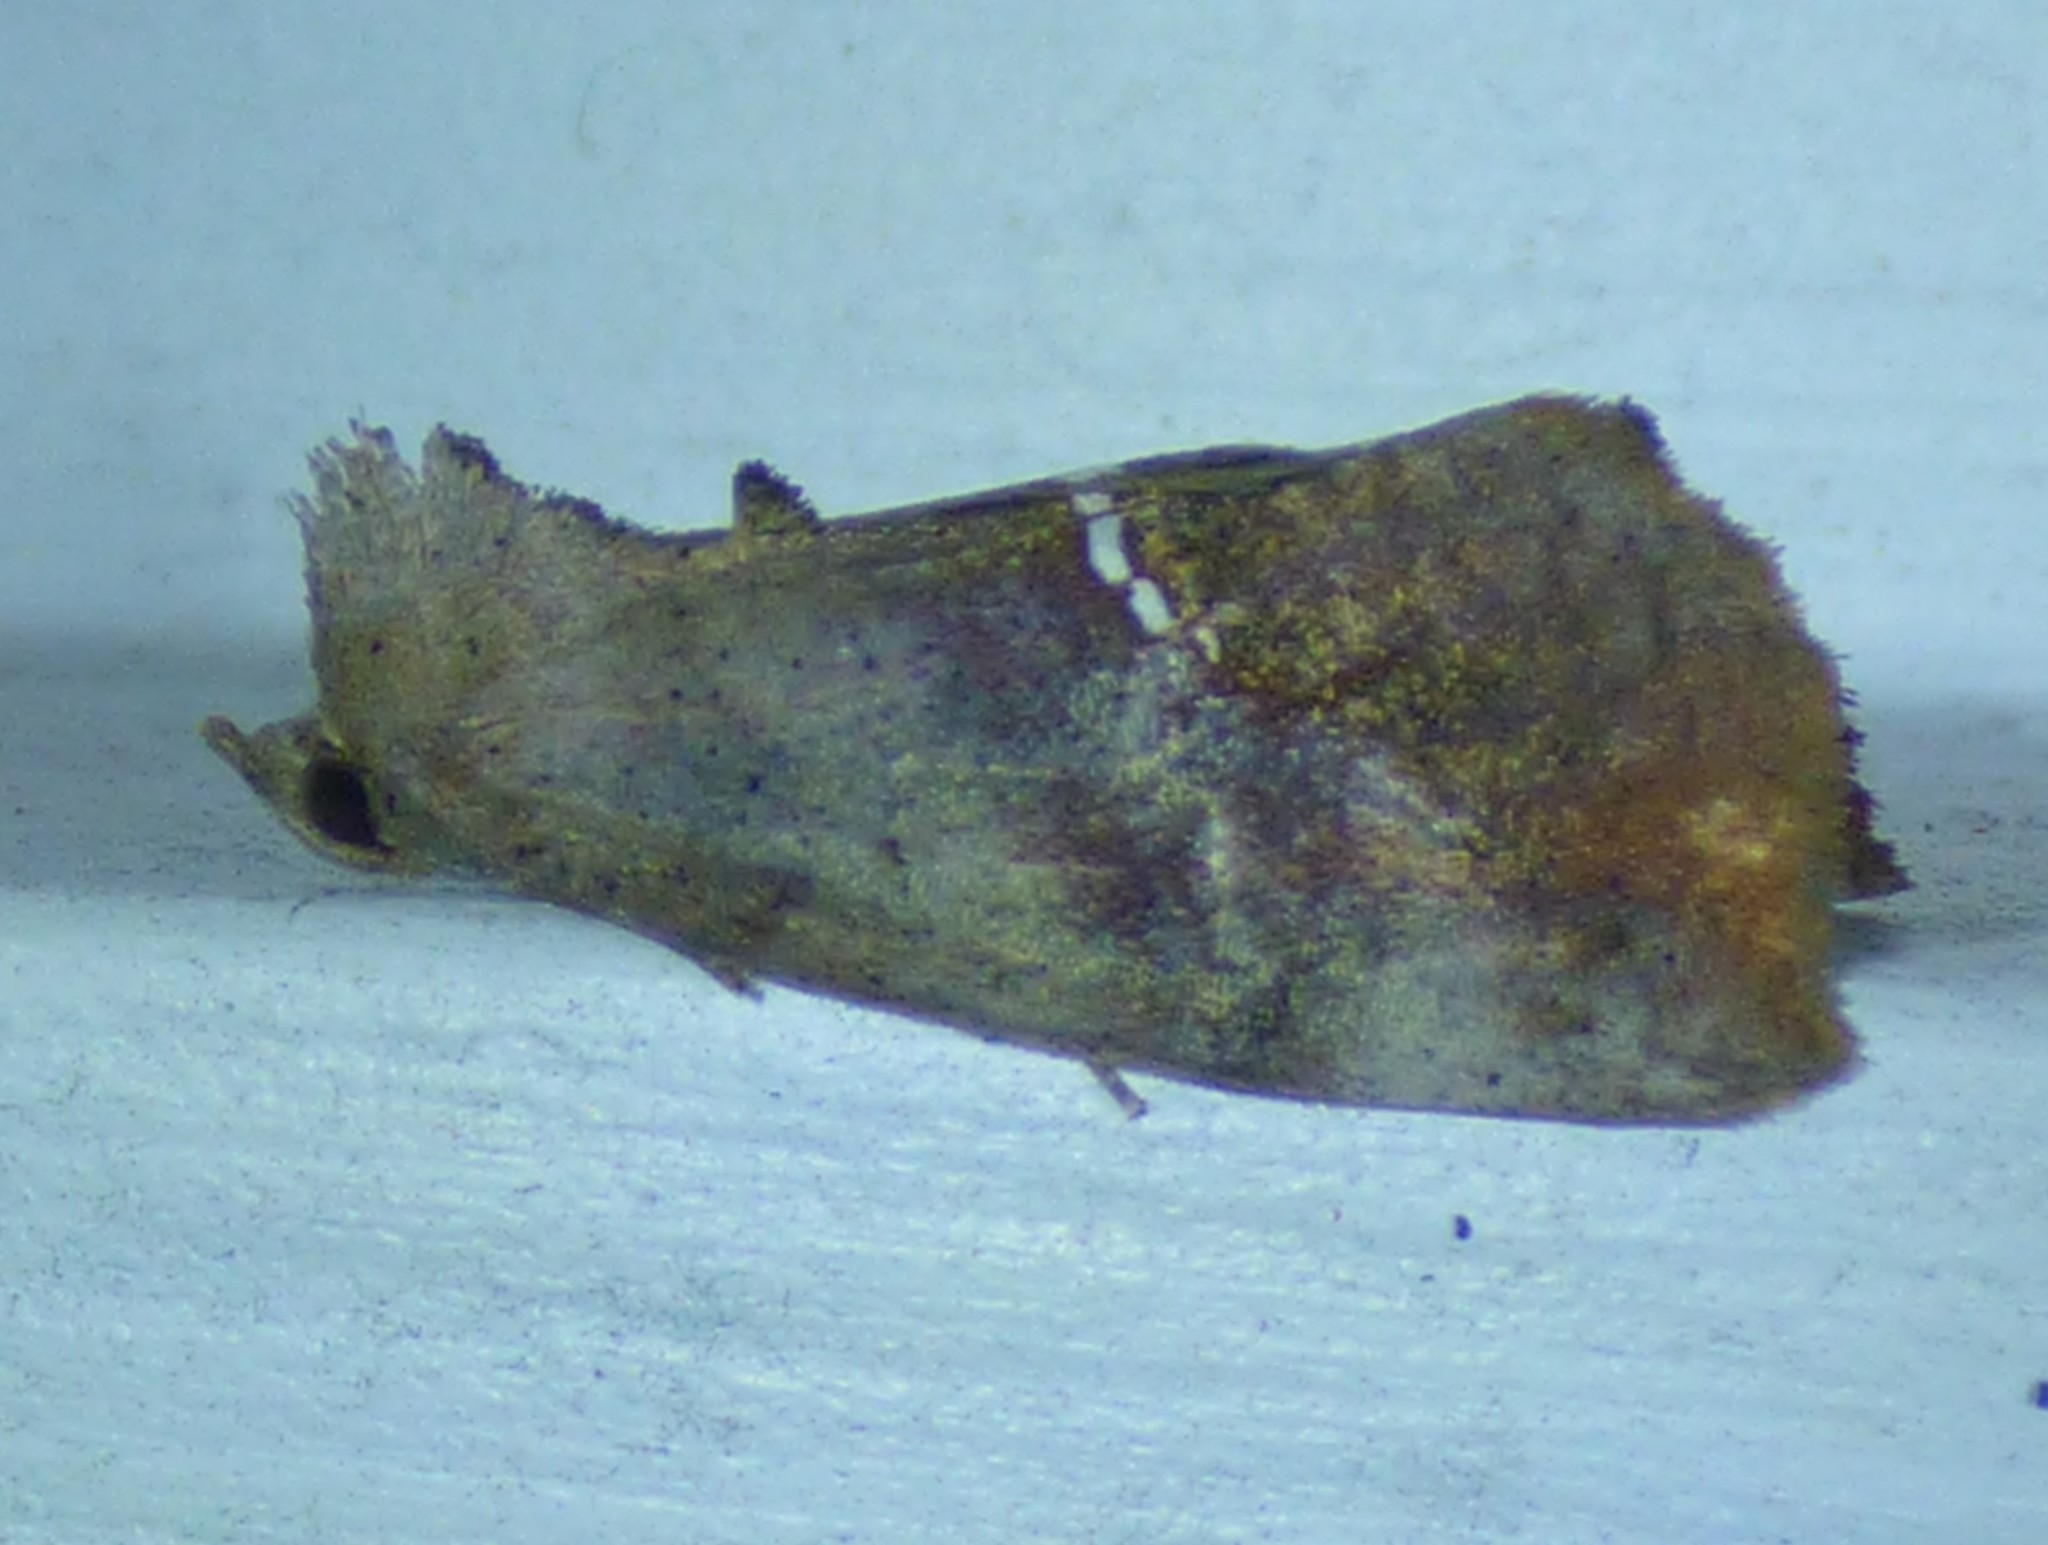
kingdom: Animalia
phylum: Arthropoda
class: Insecta
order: Lepidoptera
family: Erebidae
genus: Hypsoropha
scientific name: Hypsoropha hormos
